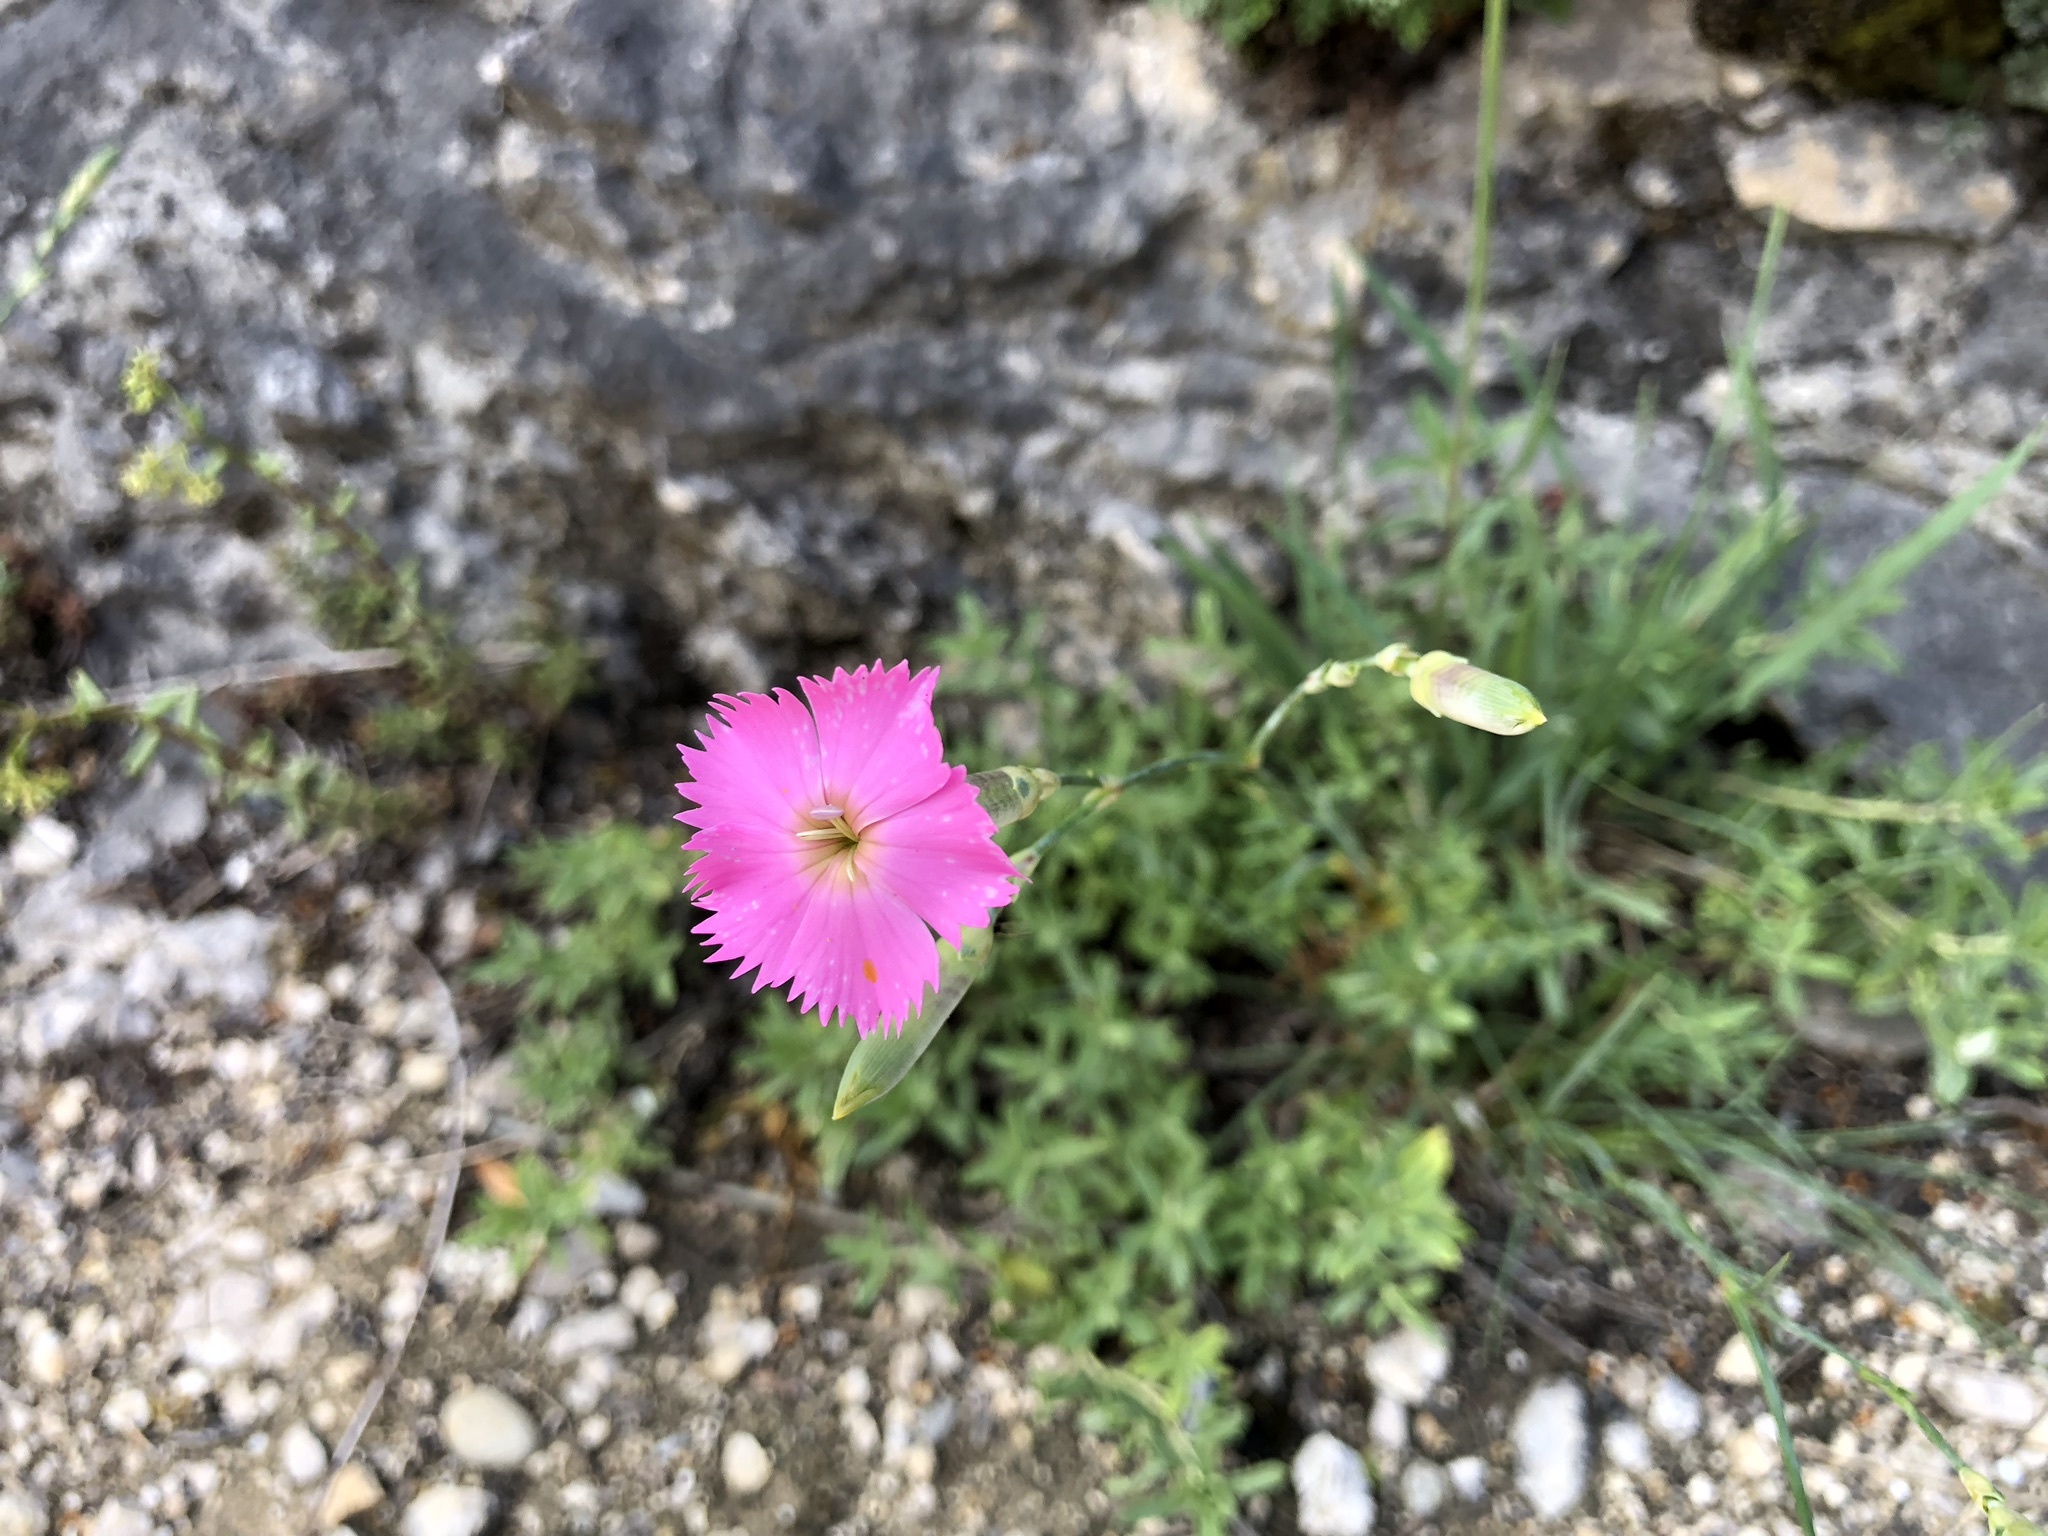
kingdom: Plantae
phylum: Tracheophyta
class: Magnoliopsida
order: Caryophyllales
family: Caryophyllaceae
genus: Dianthus
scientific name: Dianthus sylvestris
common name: Wood pink
